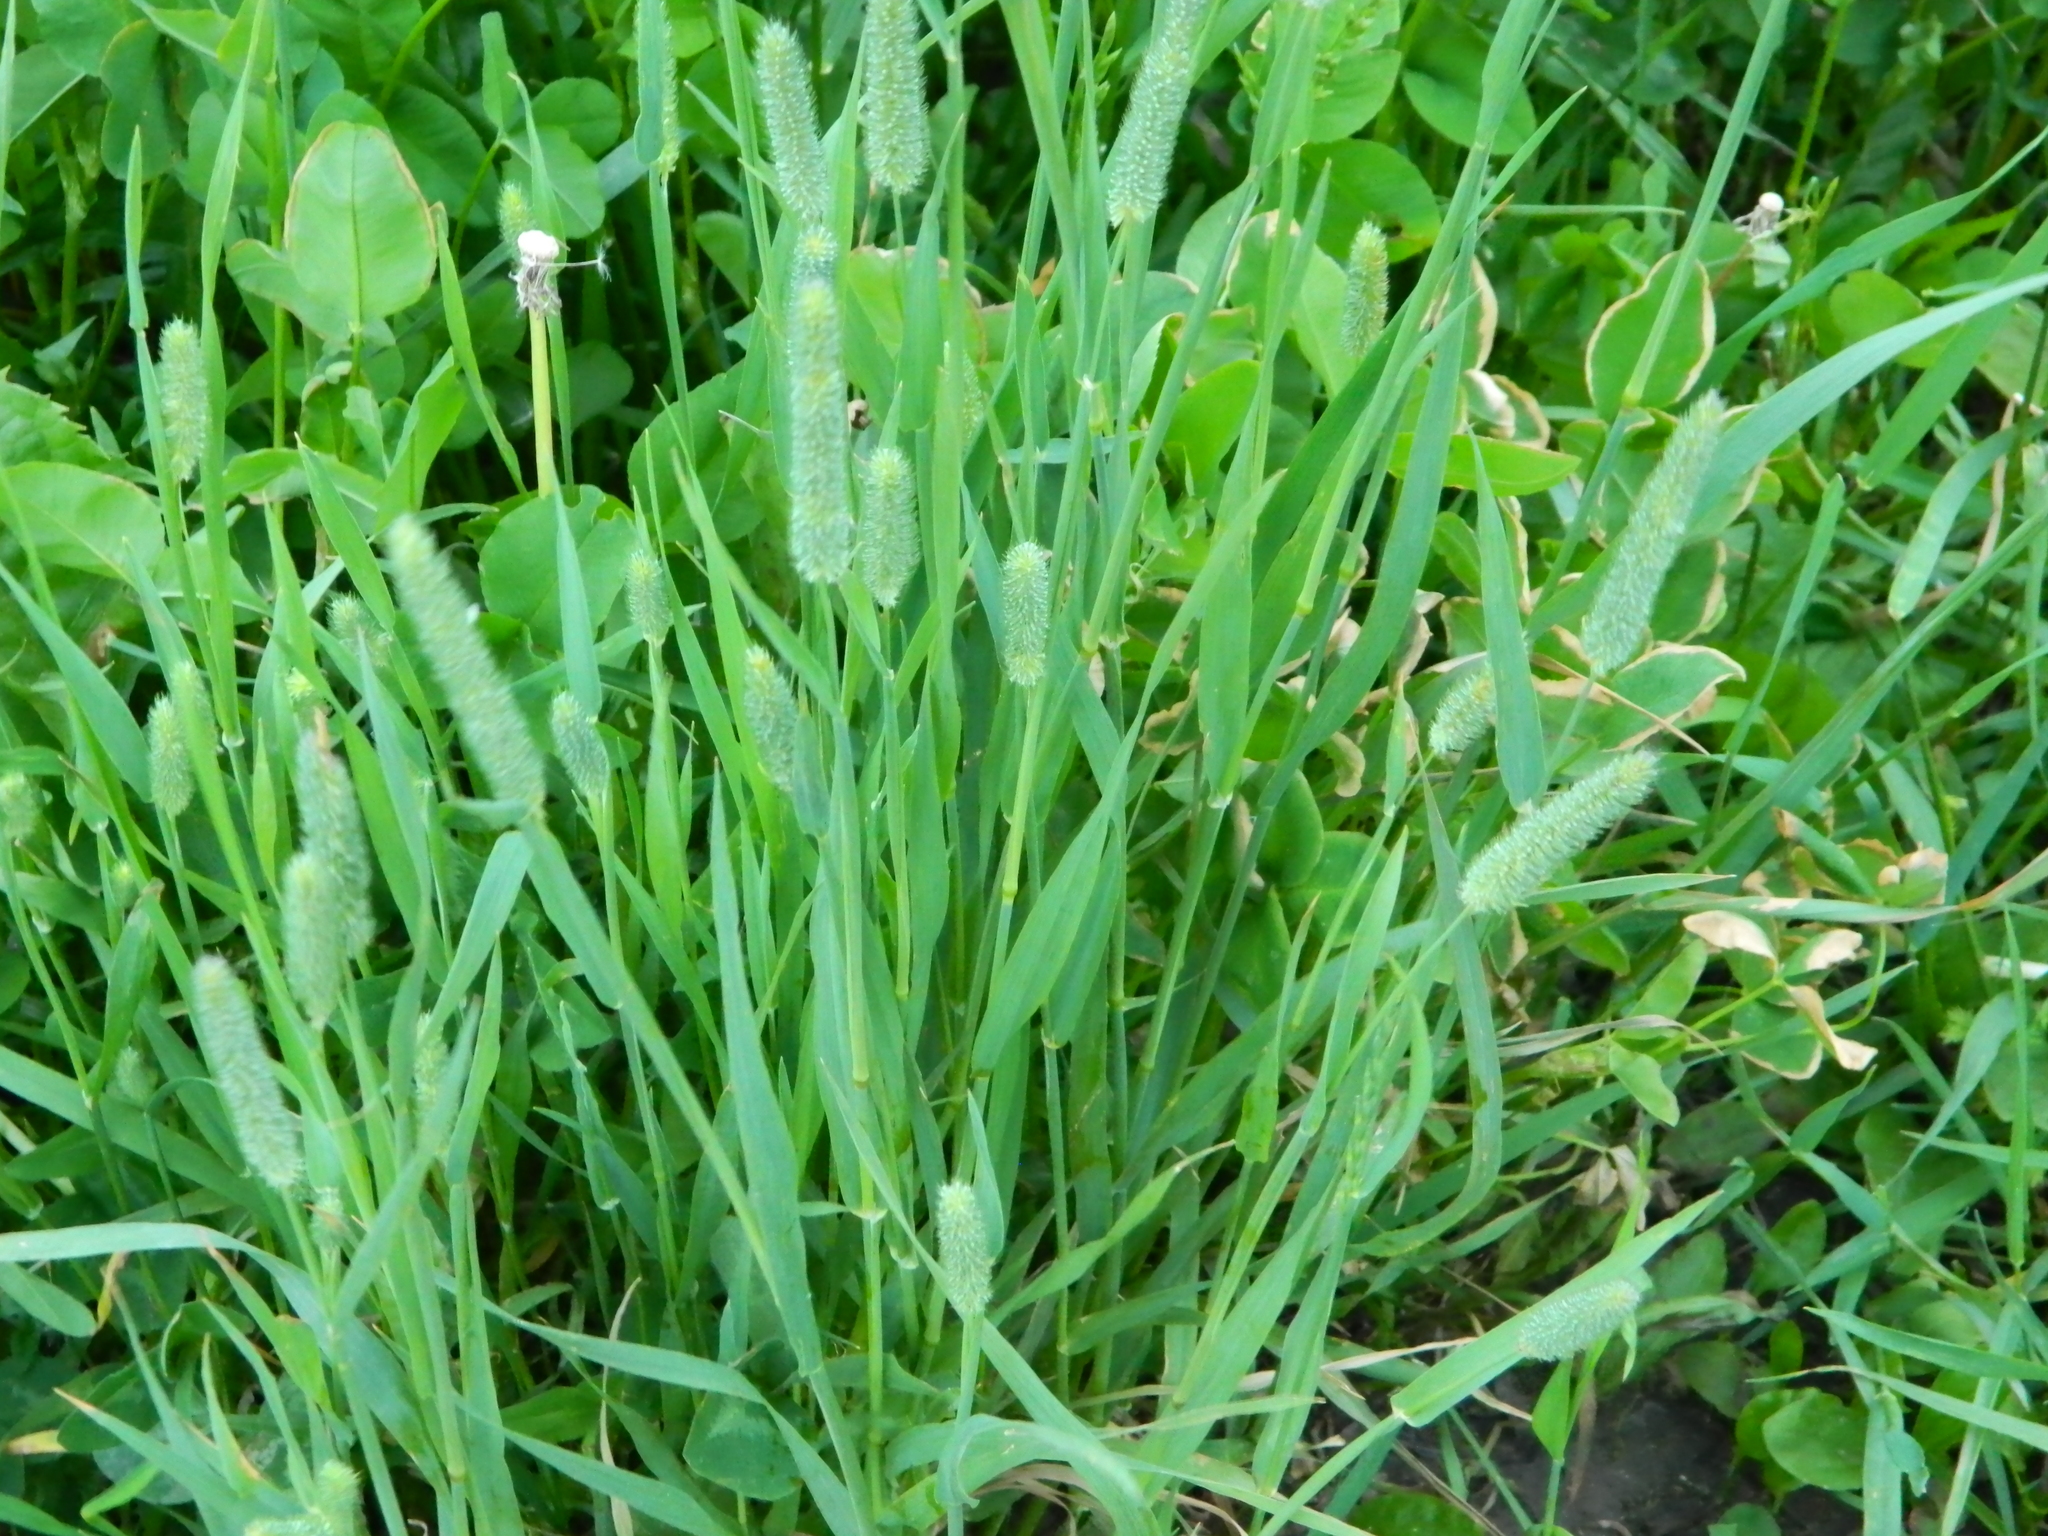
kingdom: Plantae
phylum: Tracheophyta
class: Liliopsida
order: Poales
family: Poaceae
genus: Phleum
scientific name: Phleum pratense
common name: Timothy grass
